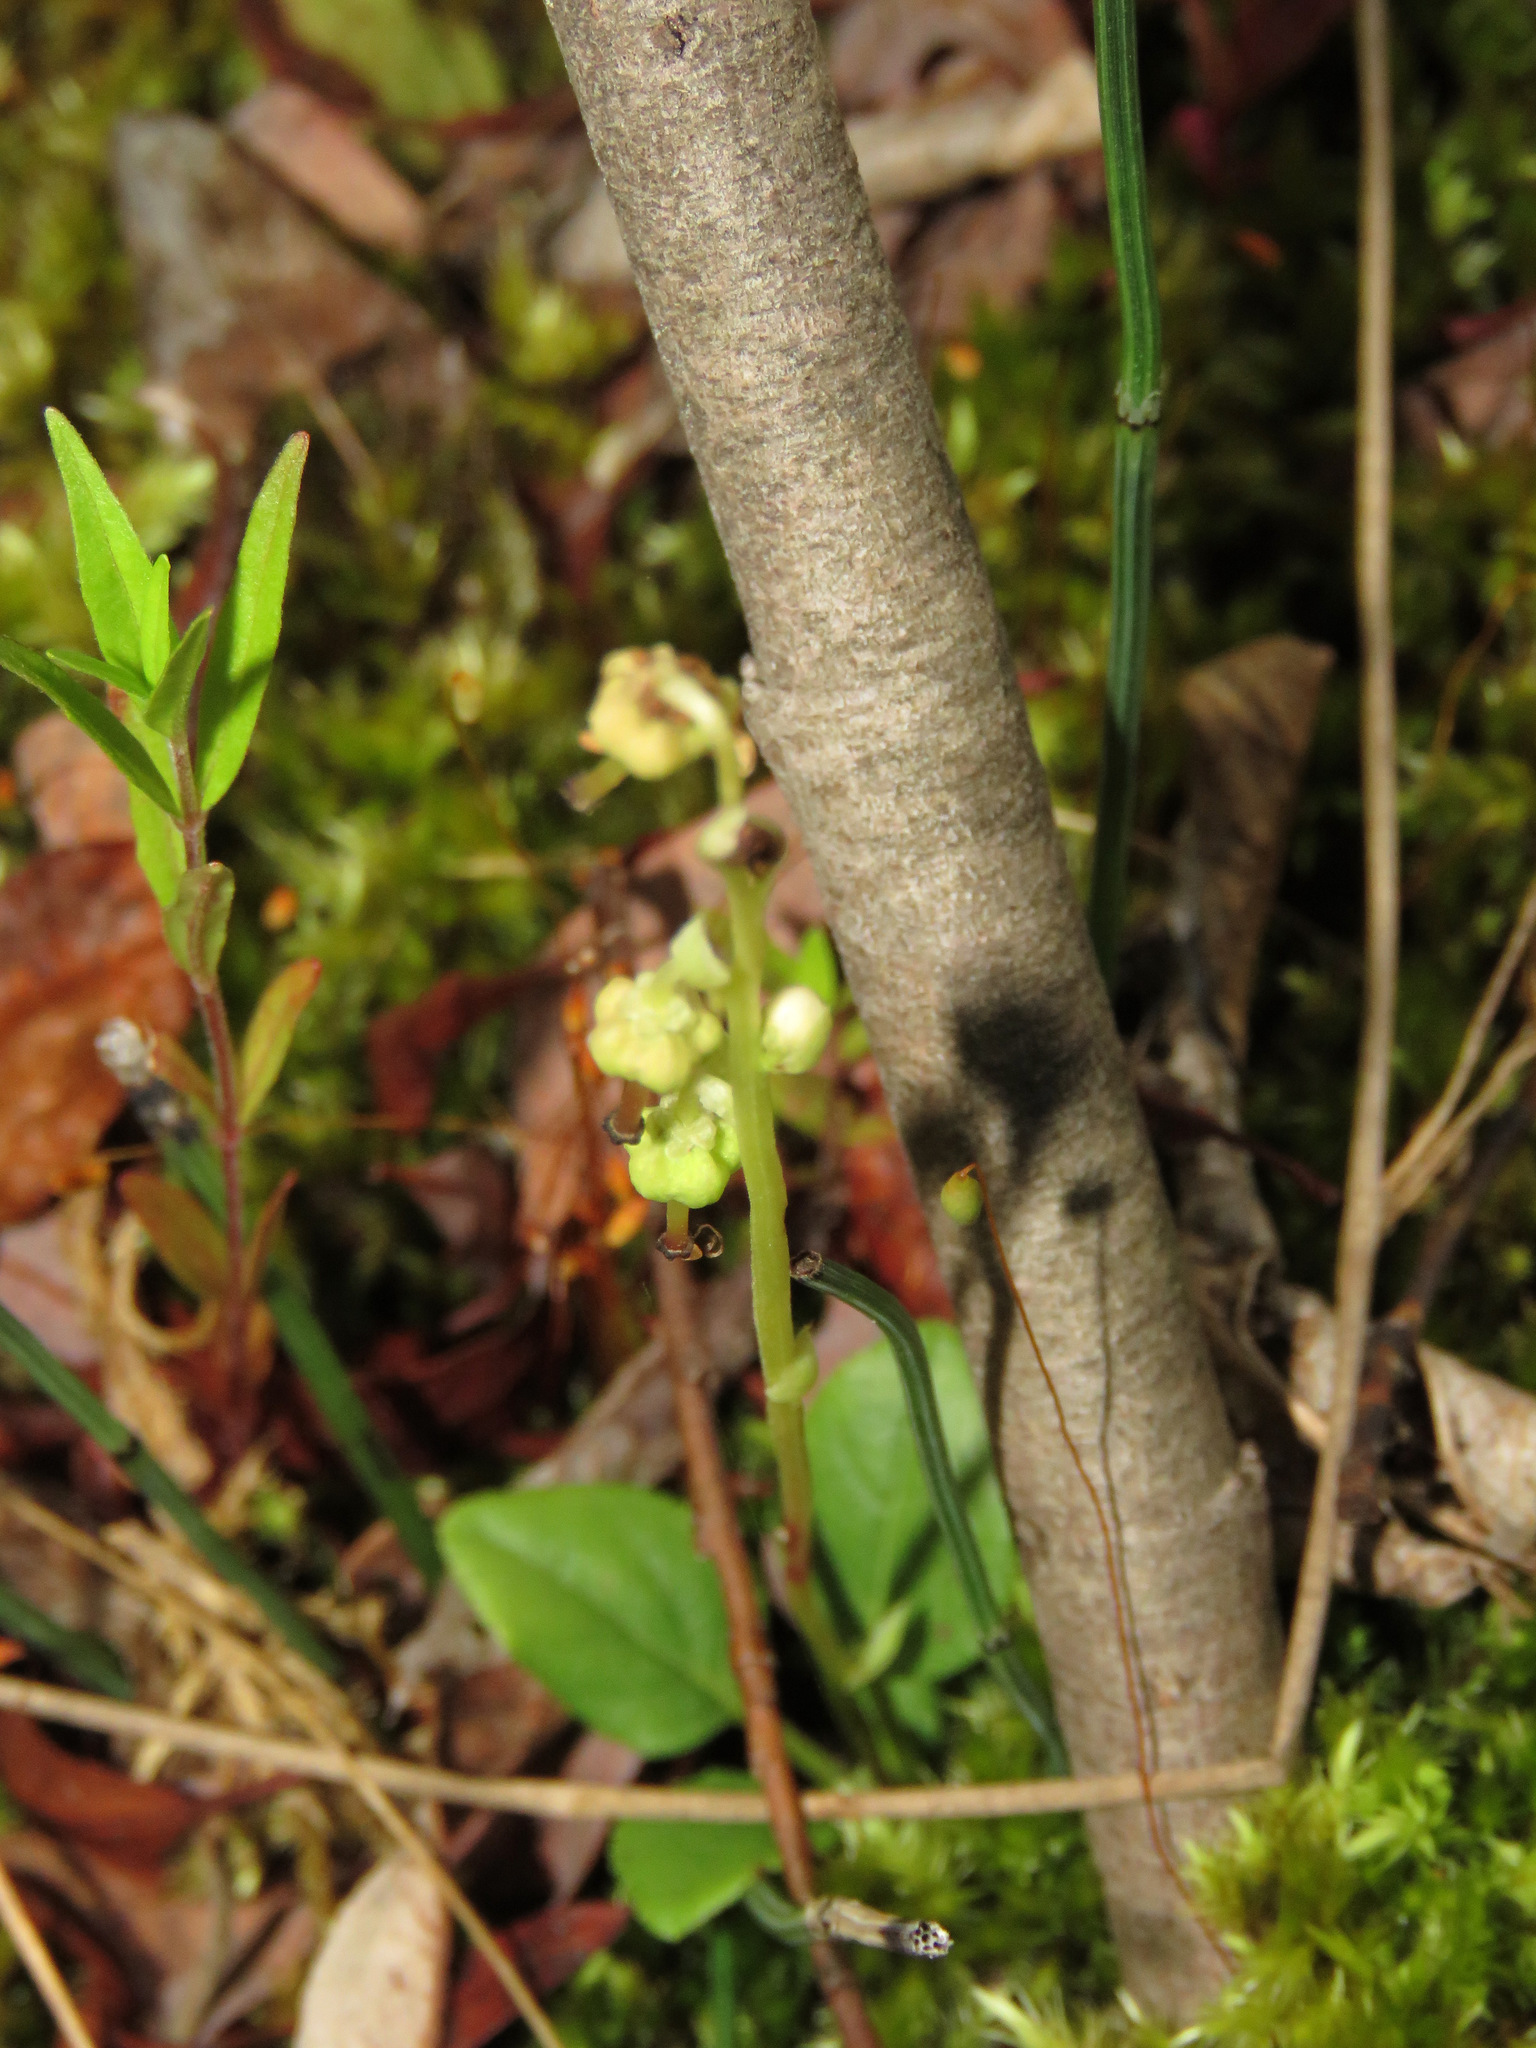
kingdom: Plantae
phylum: Tracheophyta
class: Magnoliopsida
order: Ericales
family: Ericaceae
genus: Orthilia
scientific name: Orthilia secunda
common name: One-sided orthilia
